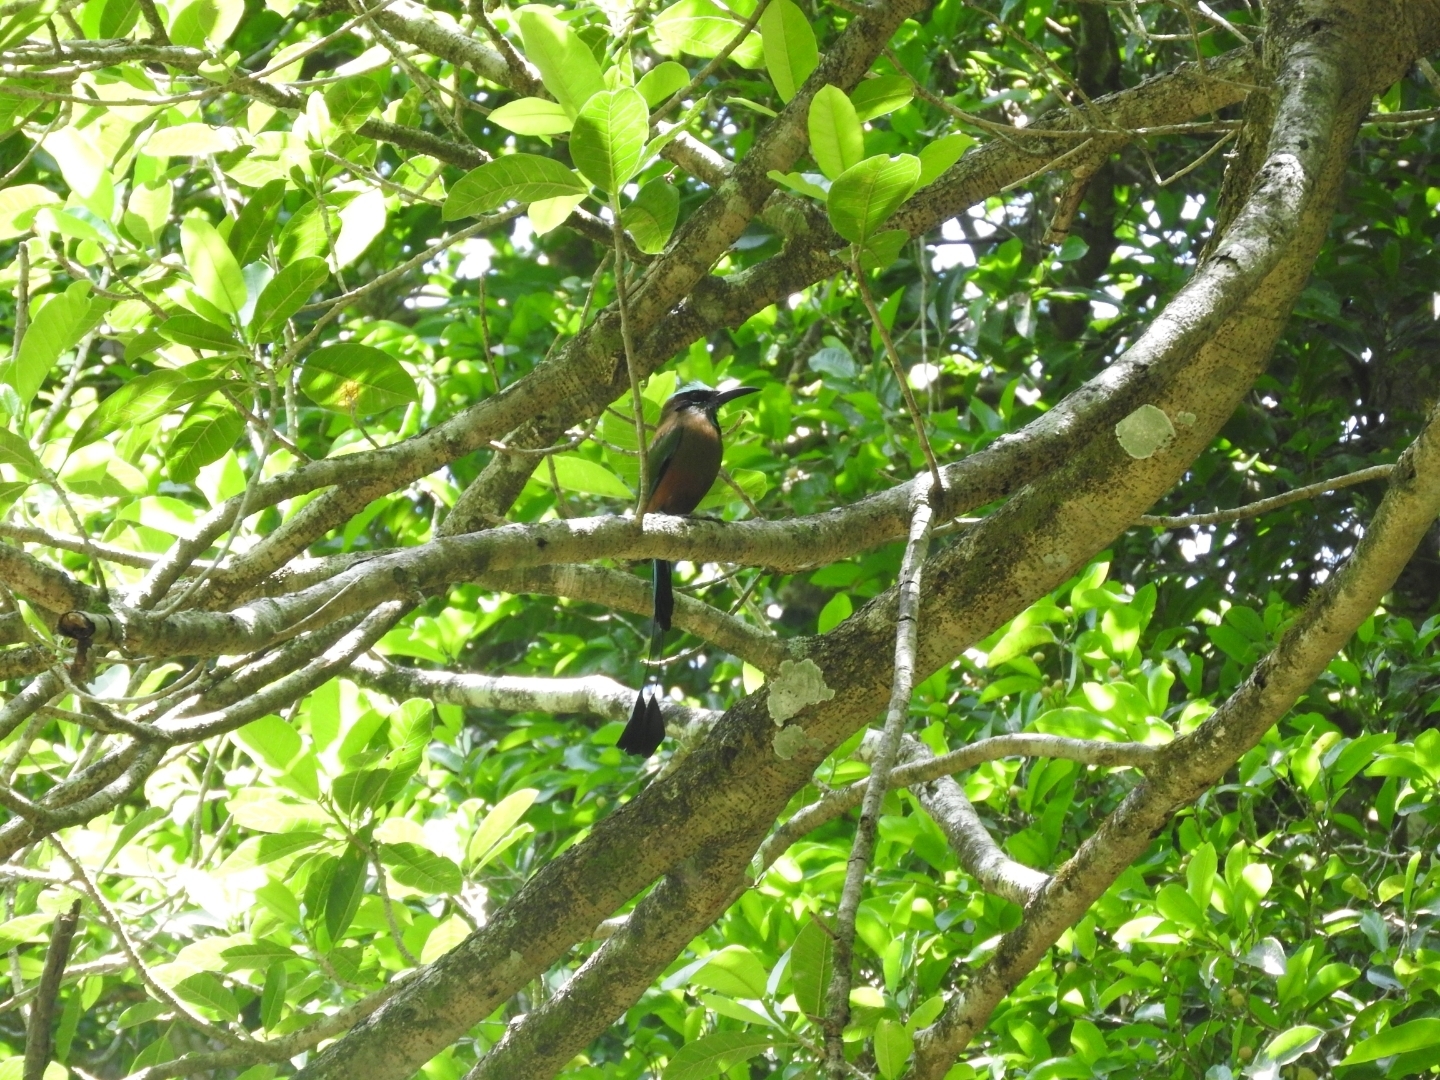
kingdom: Animalia
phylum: Chordata
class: Aves
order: Coraciiformes
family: Momotidae
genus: Eumomota
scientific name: Eumomota superciliosa
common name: Turquoise-browed motmot
